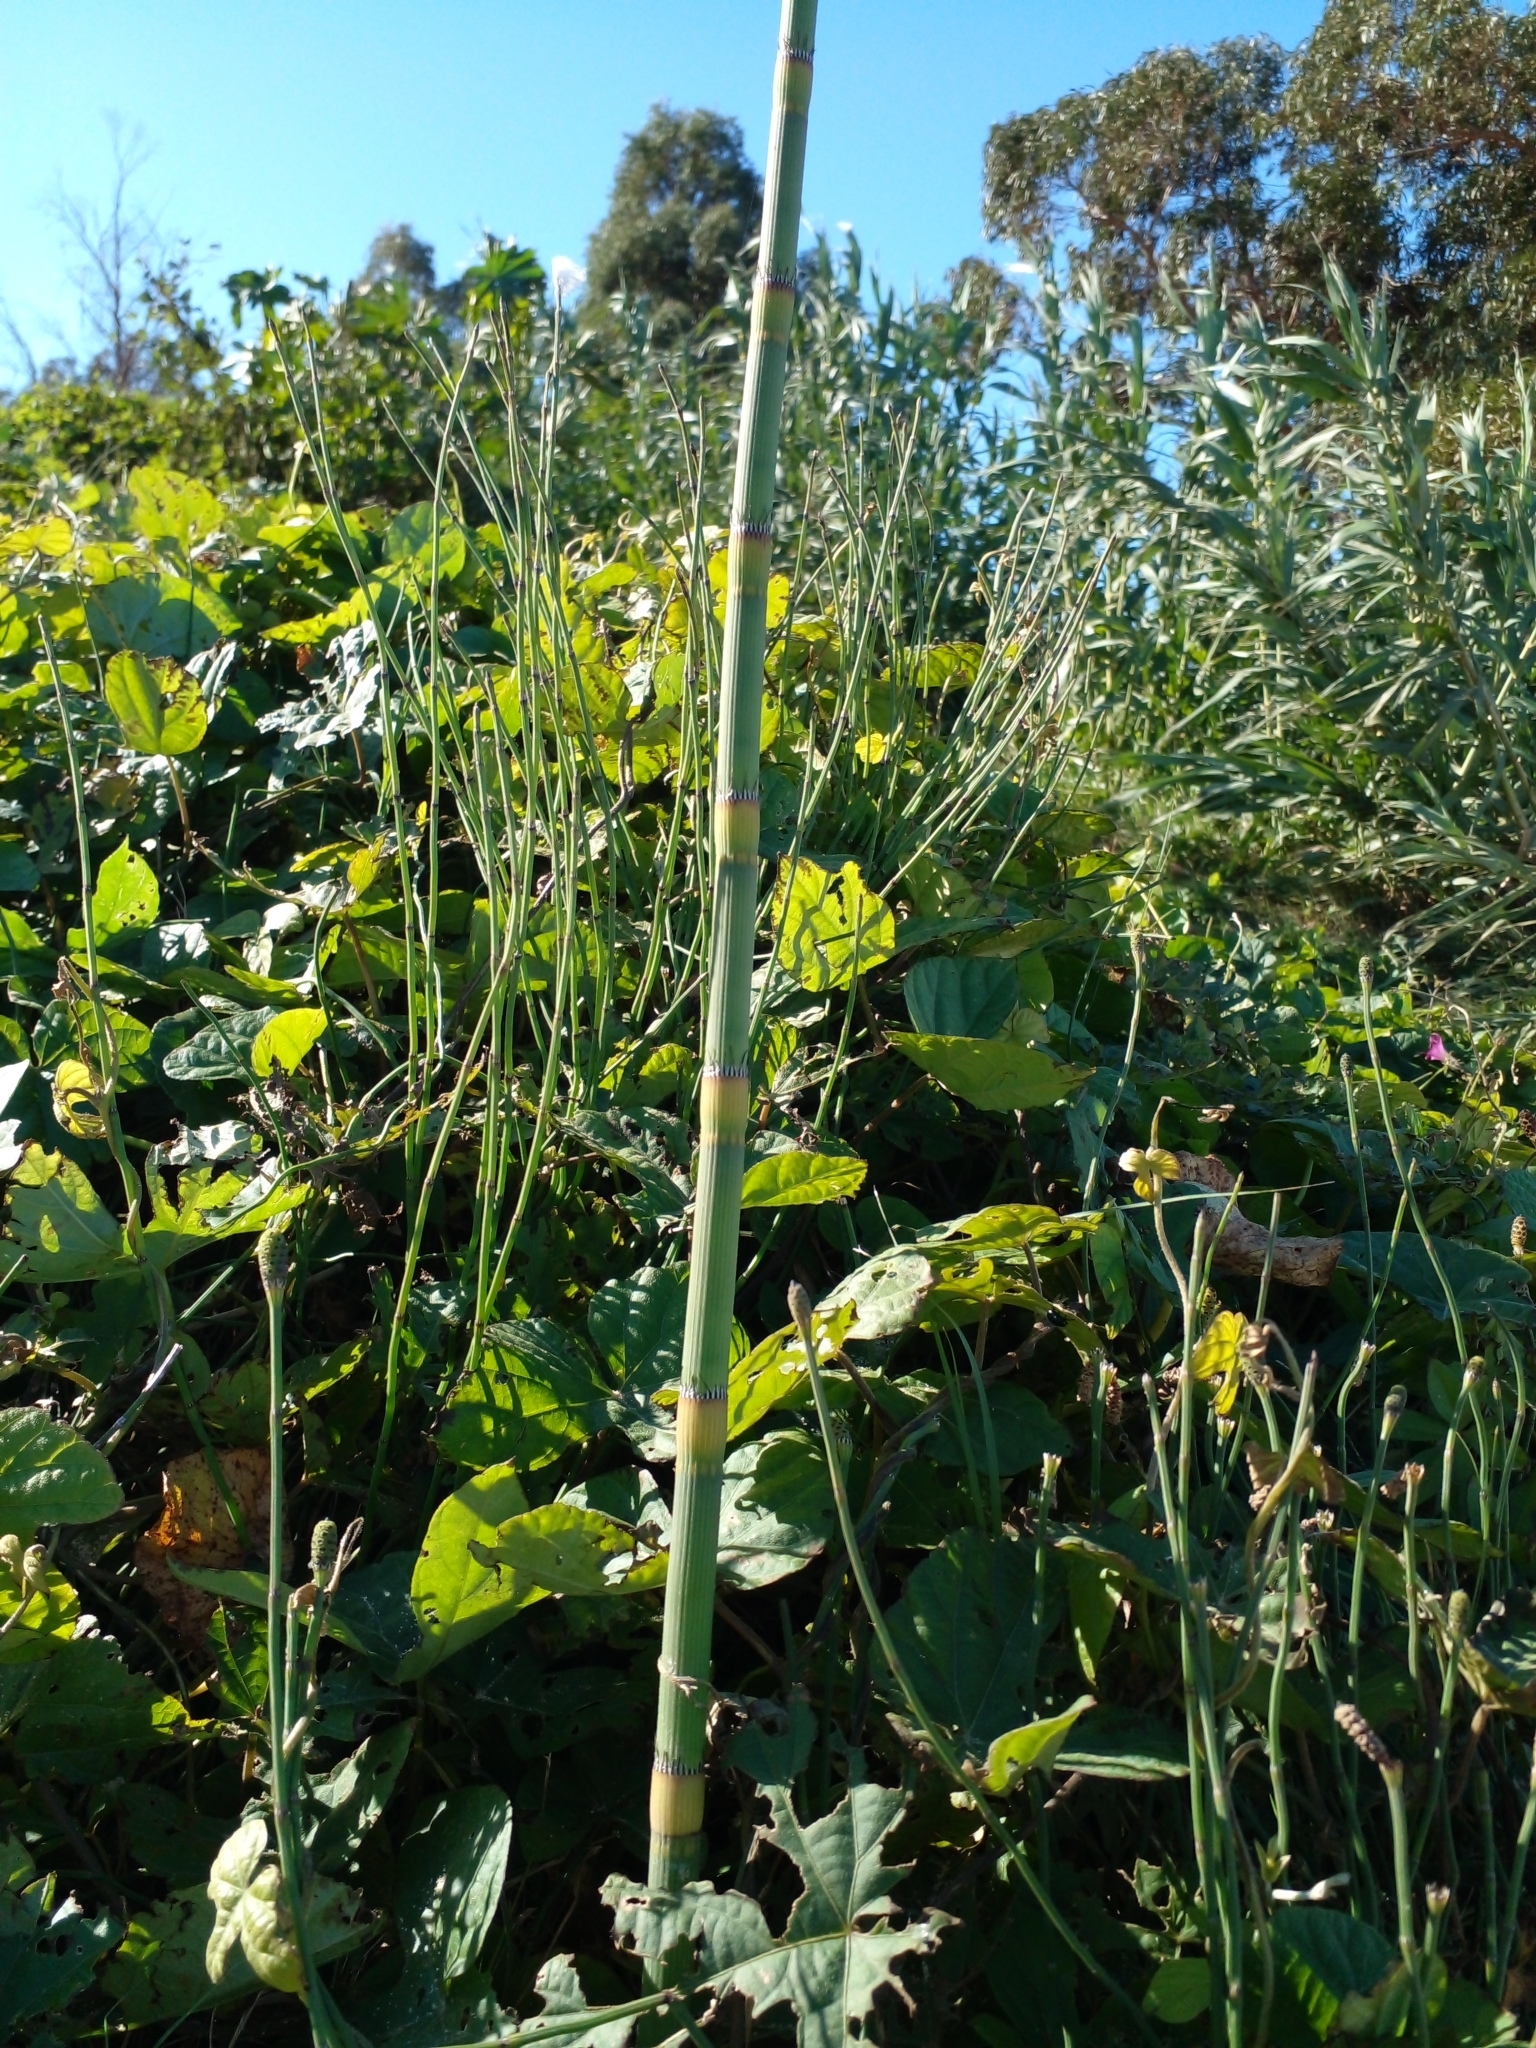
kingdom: Plantae
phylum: Tracheophyta
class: Polypodiopsida
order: Equisetales
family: Equisetaceae
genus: Equisetum
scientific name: Equisetum giganteum
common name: Giant horsetail
